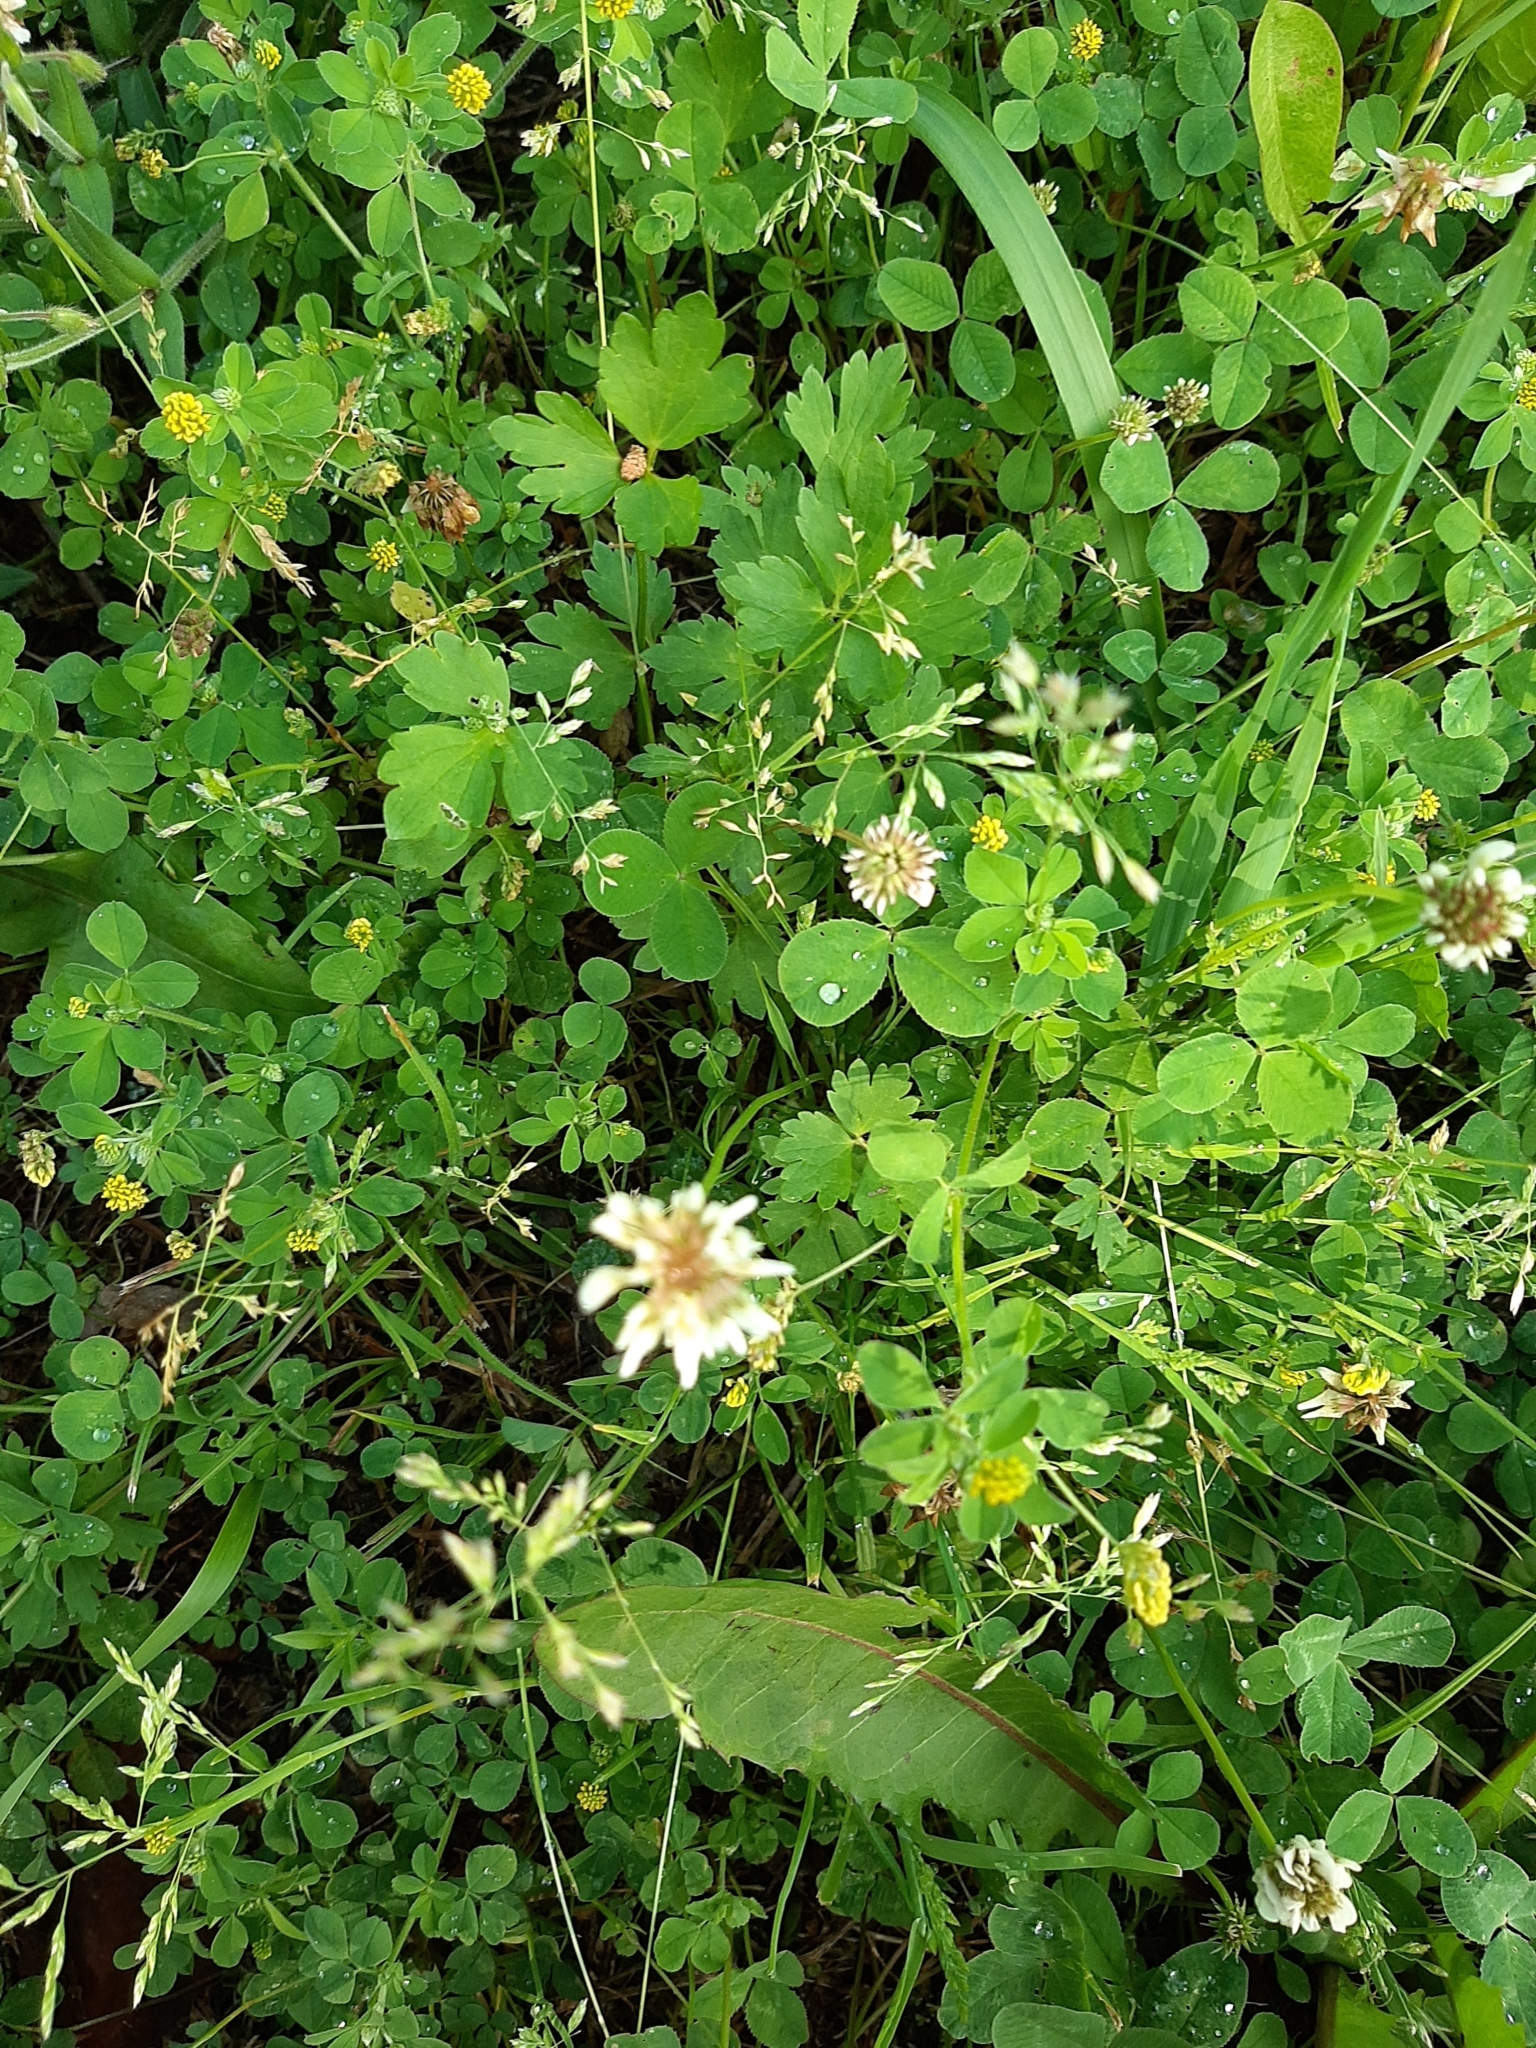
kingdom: Plantae
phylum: Tracheophyta
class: Magnoliopsida
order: Fabales
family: Fabaceae
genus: Trifolium
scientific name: Trifolium repens
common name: White clover
